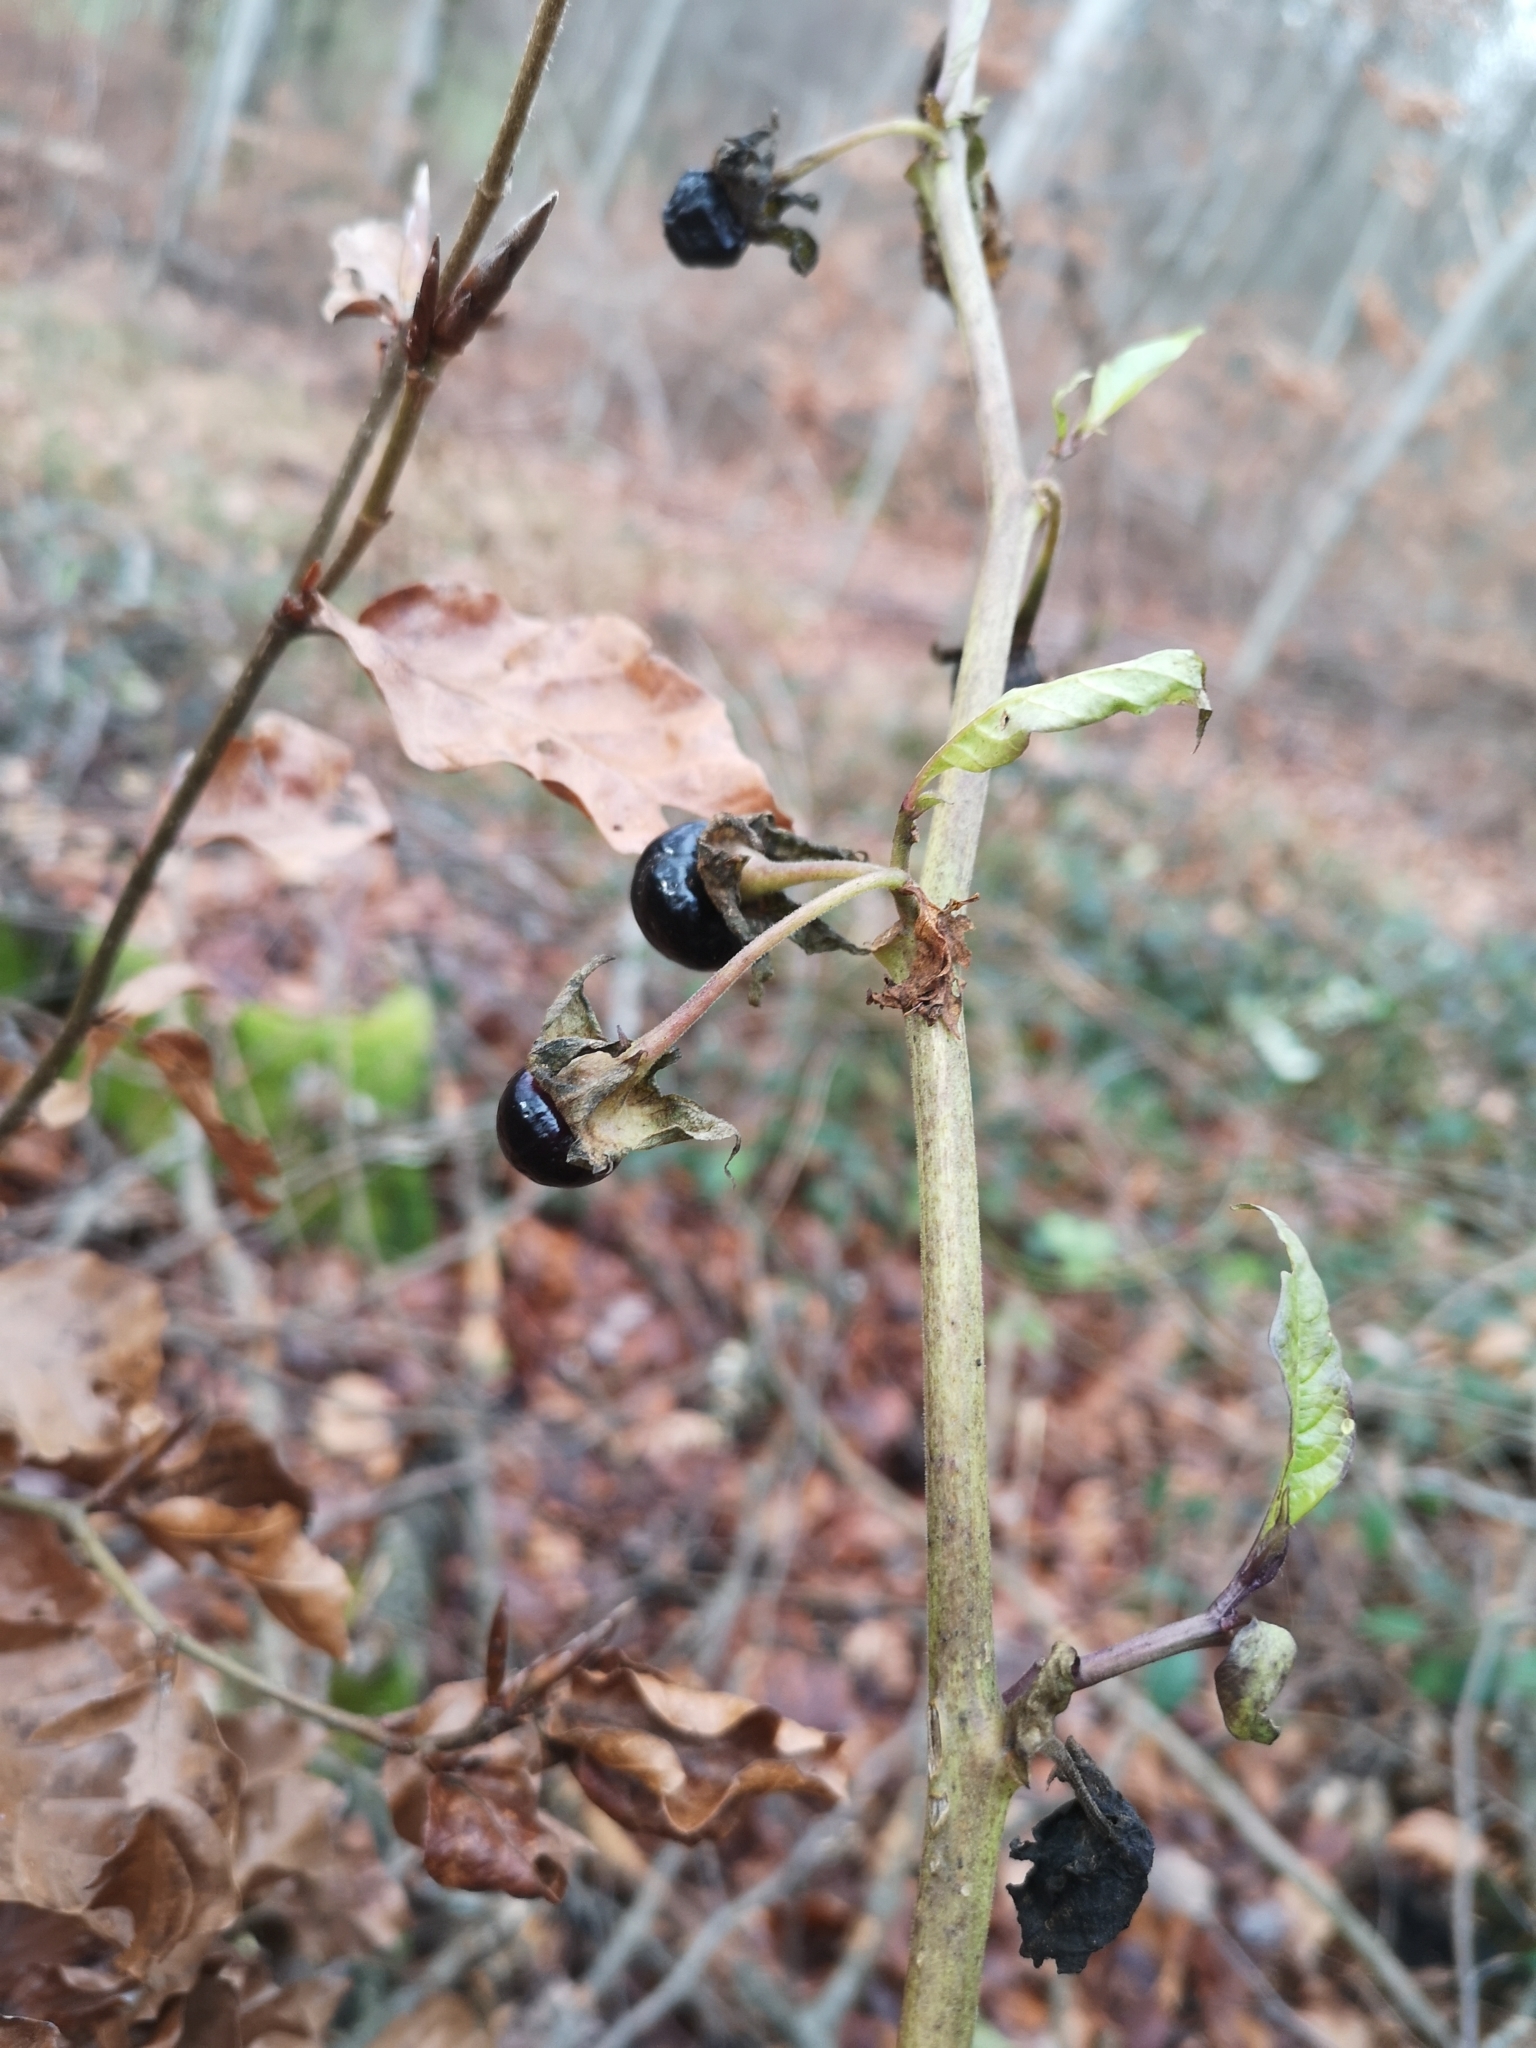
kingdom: Plantae
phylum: Tracheophyta
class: Magnoliopsida
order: Solanales
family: Solanaceae
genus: Atropa
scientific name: Atropa belladonna
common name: Deadly nightshade
